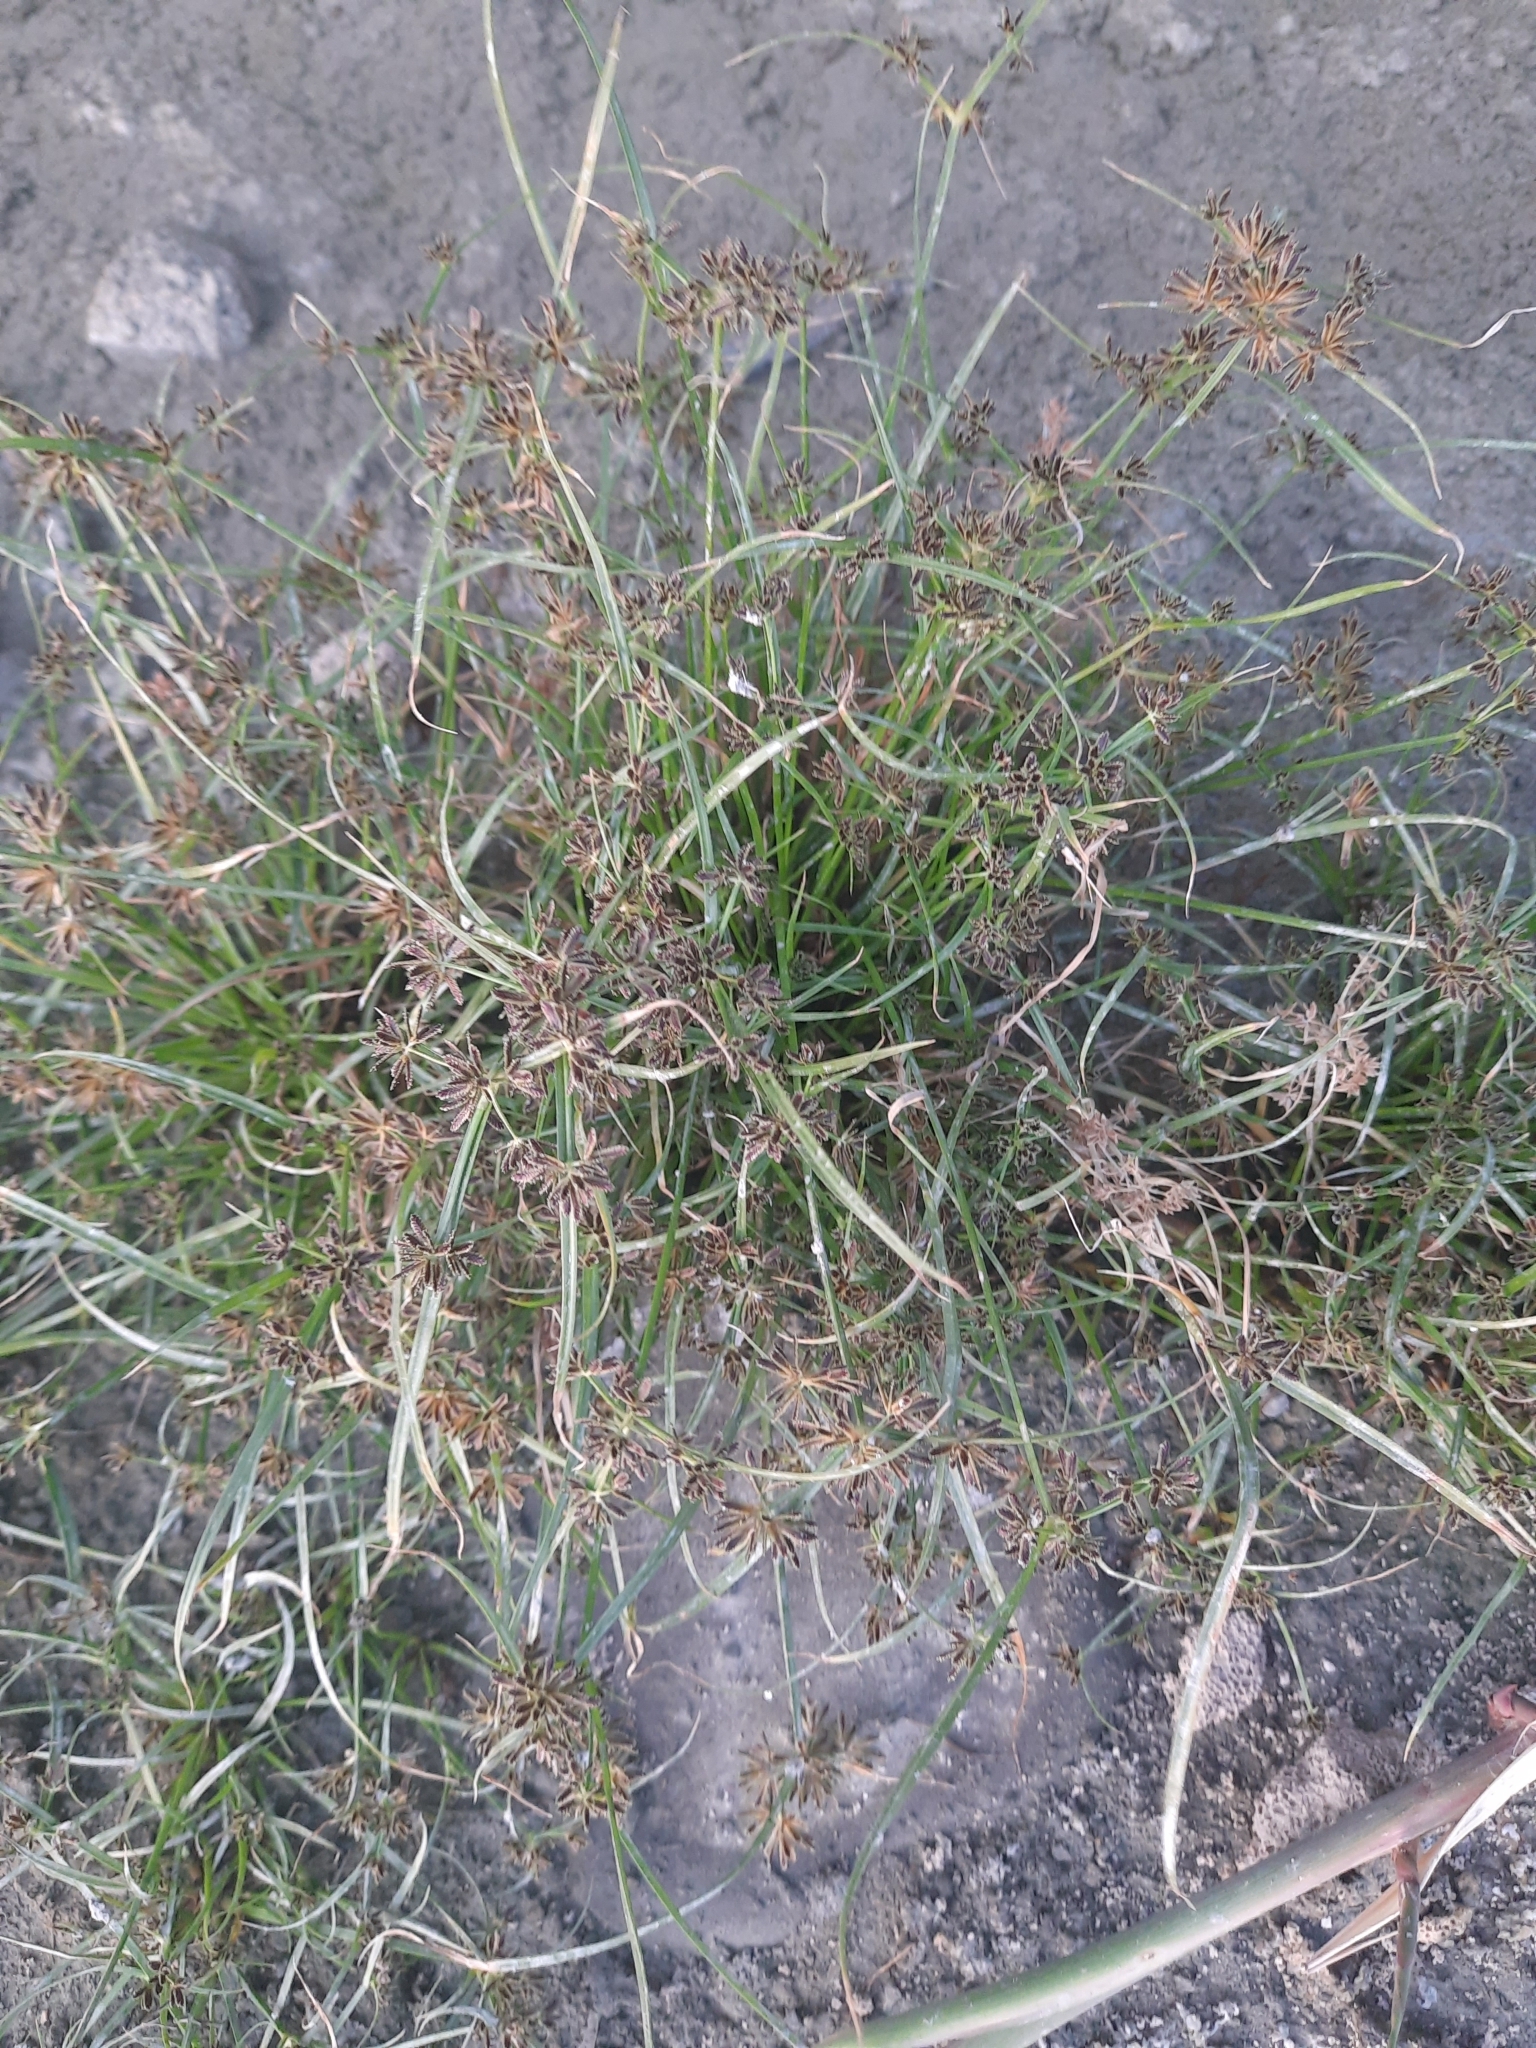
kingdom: Plantae
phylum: Tracheophyta
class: Liliopsida
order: Poales
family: Cyperaceae
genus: Cyperus
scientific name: Cyperus fuscus
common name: Brown galingale
